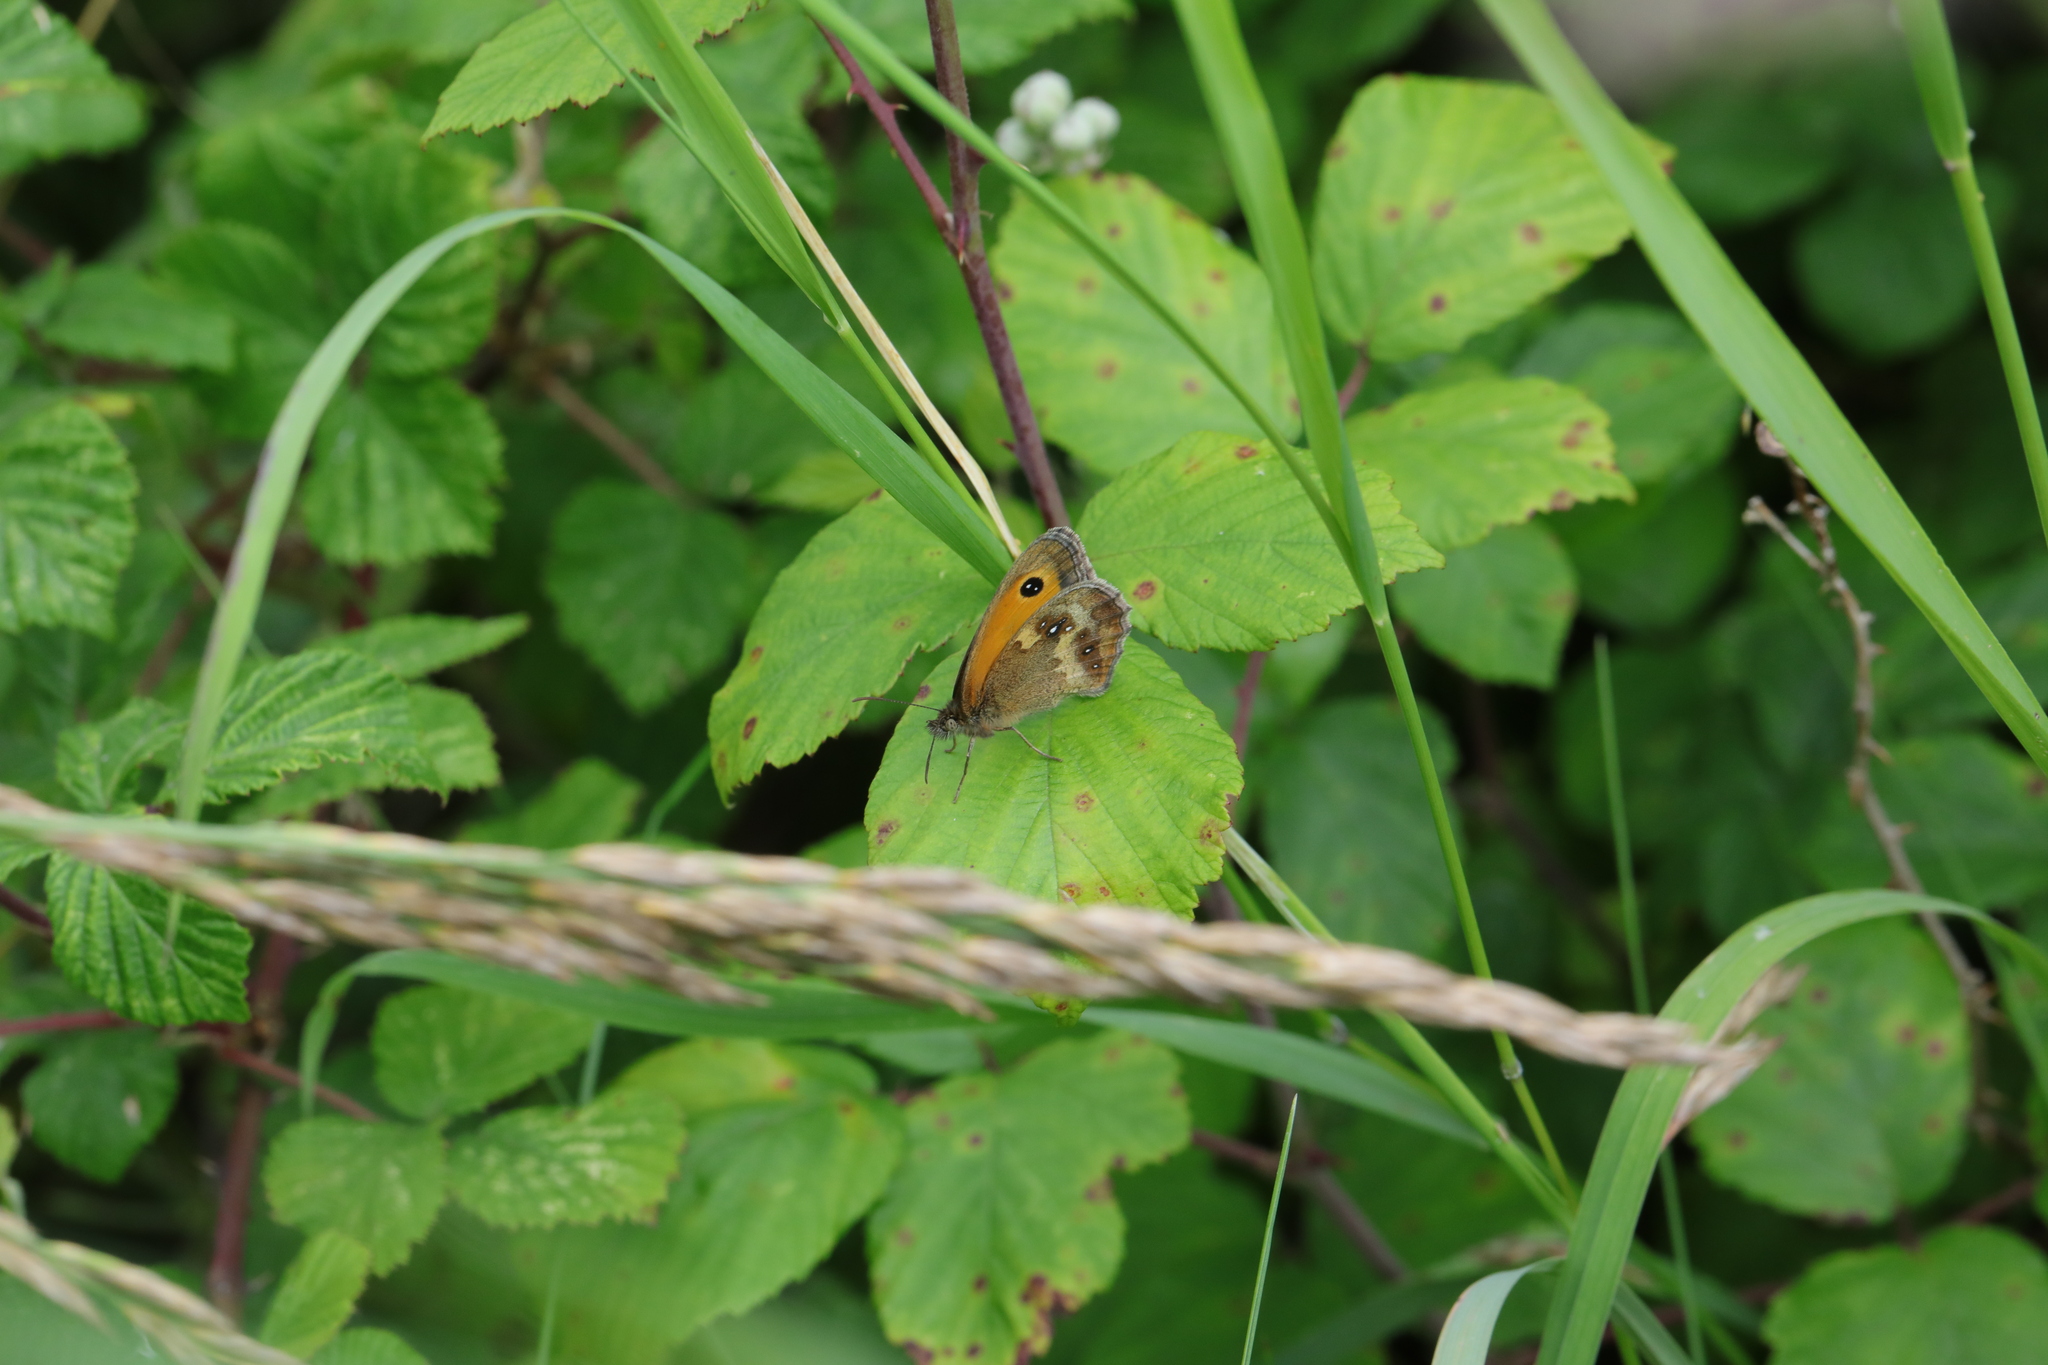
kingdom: Animalia
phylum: Arthropoda
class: Insecta
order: Lepidoptera
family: Nymphalidae
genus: Pyronia
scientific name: Pyronia tithonus
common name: Gatekeeper
